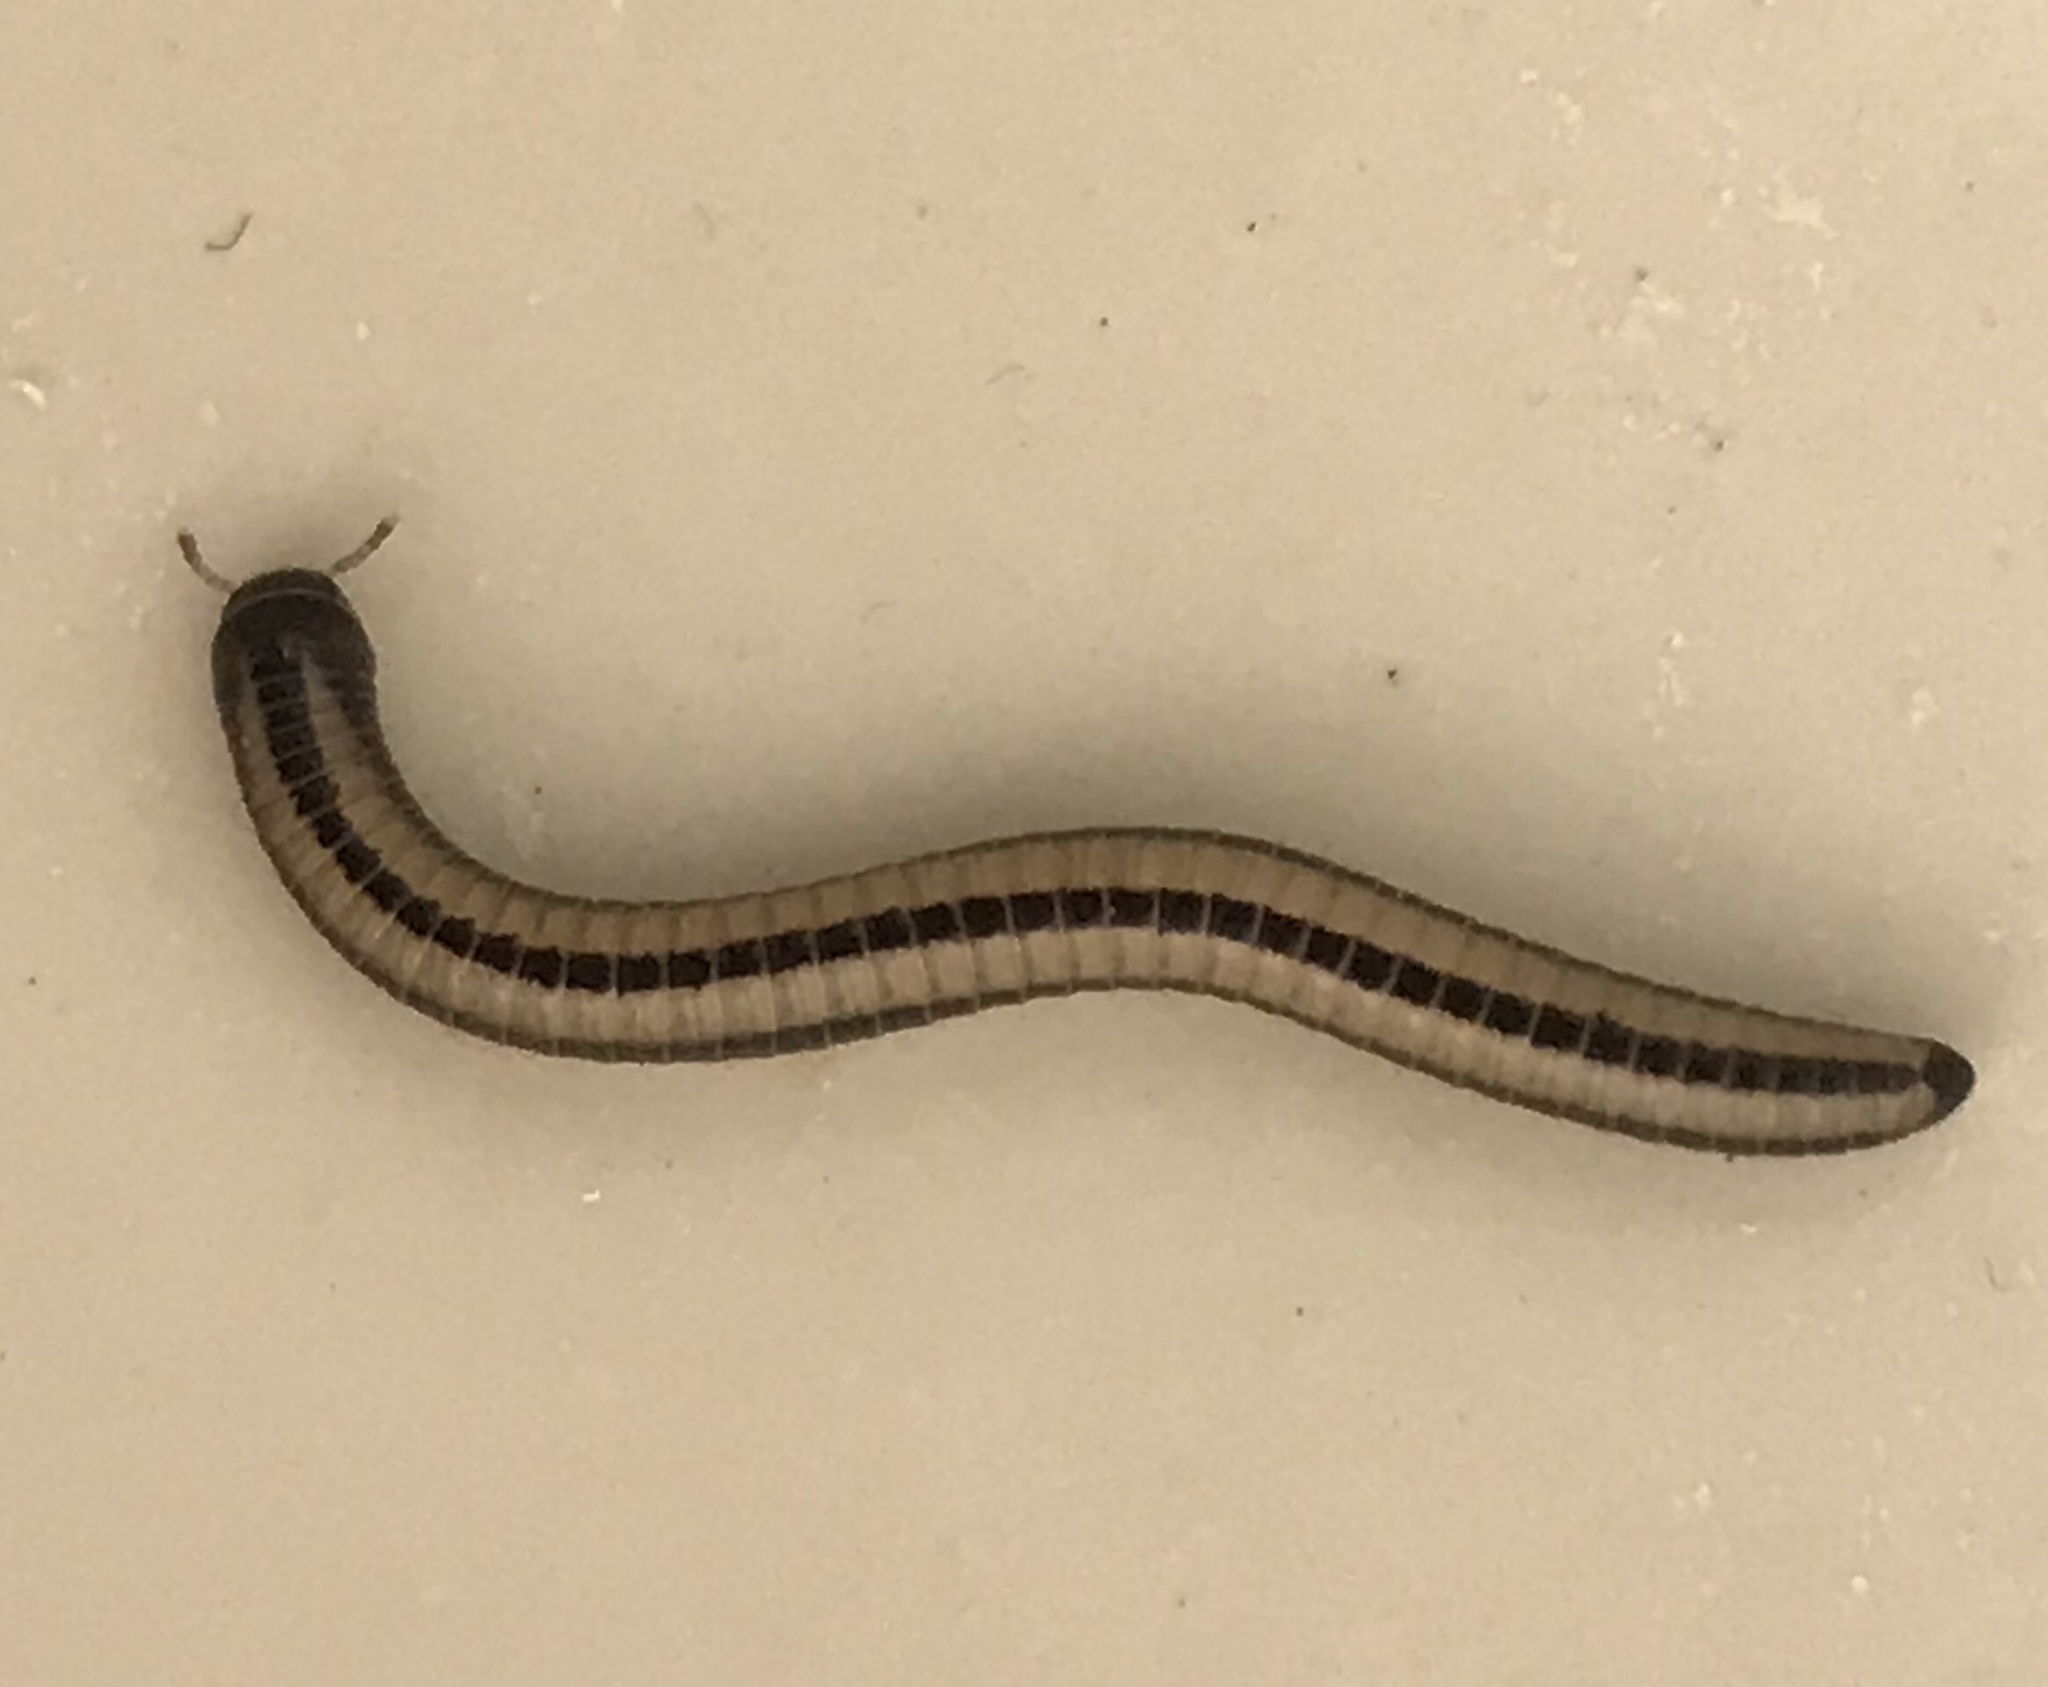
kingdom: Animalia
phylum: Arthropoda
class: Diplopoda
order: Spirobolida
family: Spirobolellidae
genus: Spirobolellus
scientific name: Spirobolellus immigrans
